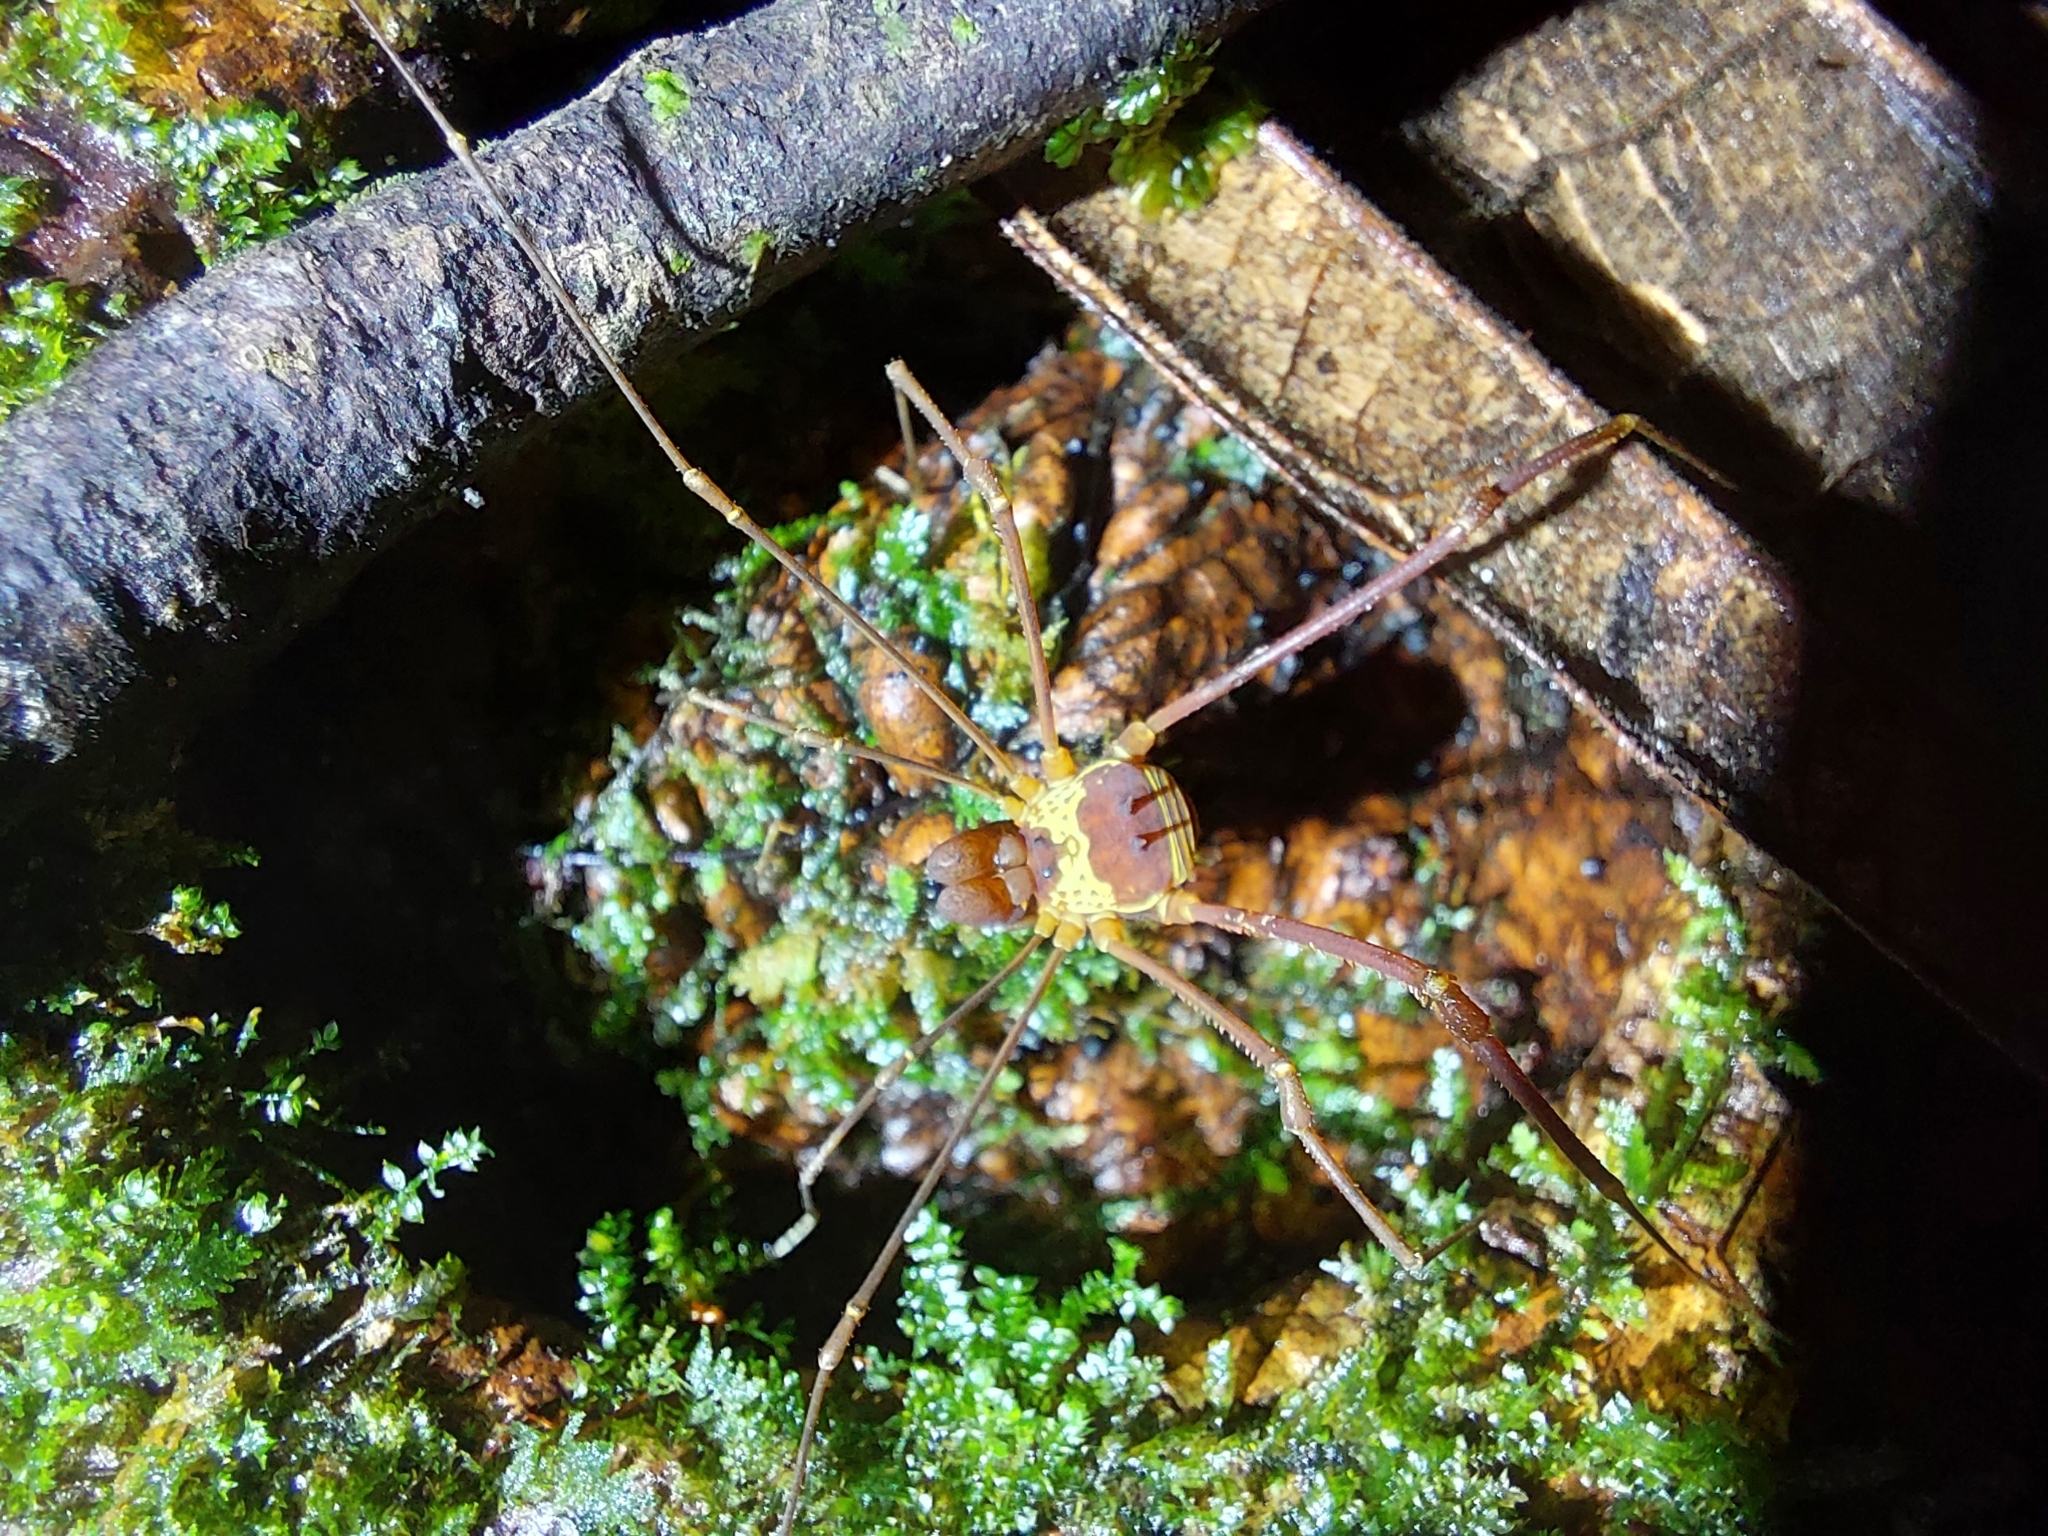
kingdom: Animalia
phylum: Arthropoda
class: Arachnida
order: Opiliones
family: Cosmetidae
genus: Meterginus
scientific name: Meterginus serratus
